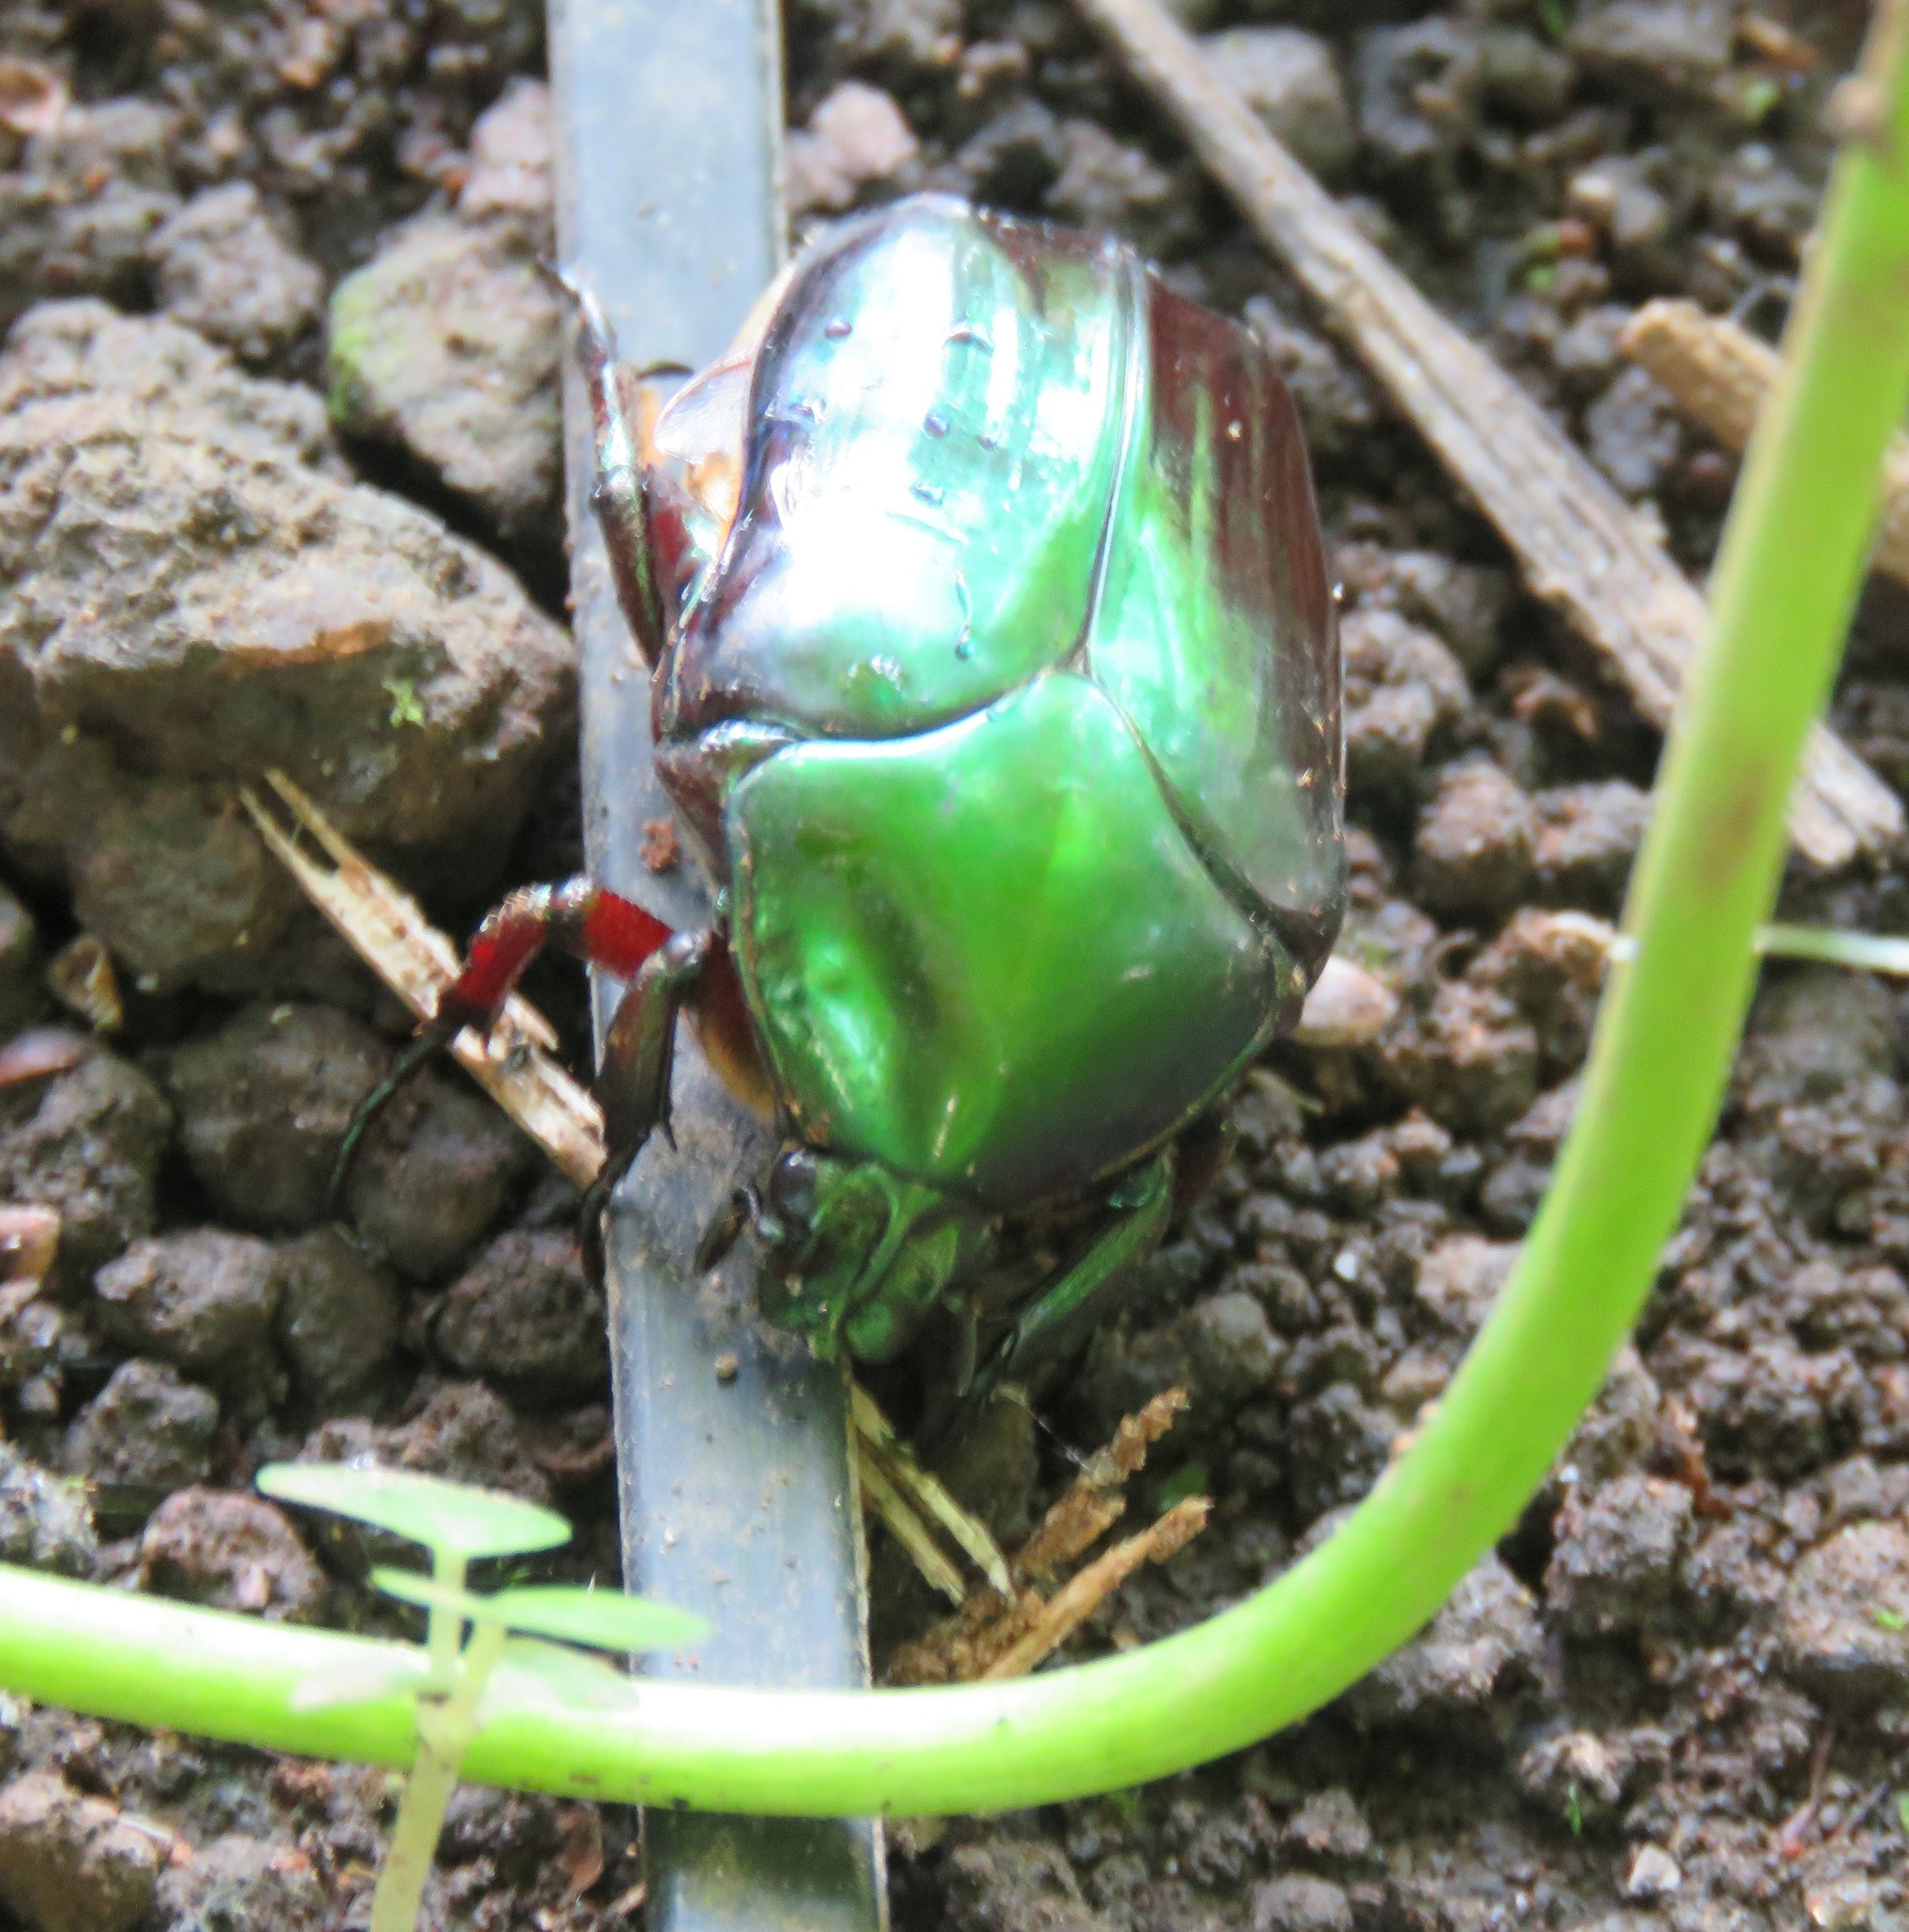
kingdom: Animalia
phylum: Arthropoda
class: Insecta
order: Coleoptera
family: Scarabaeidae
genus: Cotinis
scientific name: Cotinis mutabilis
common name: Figeater beetle
